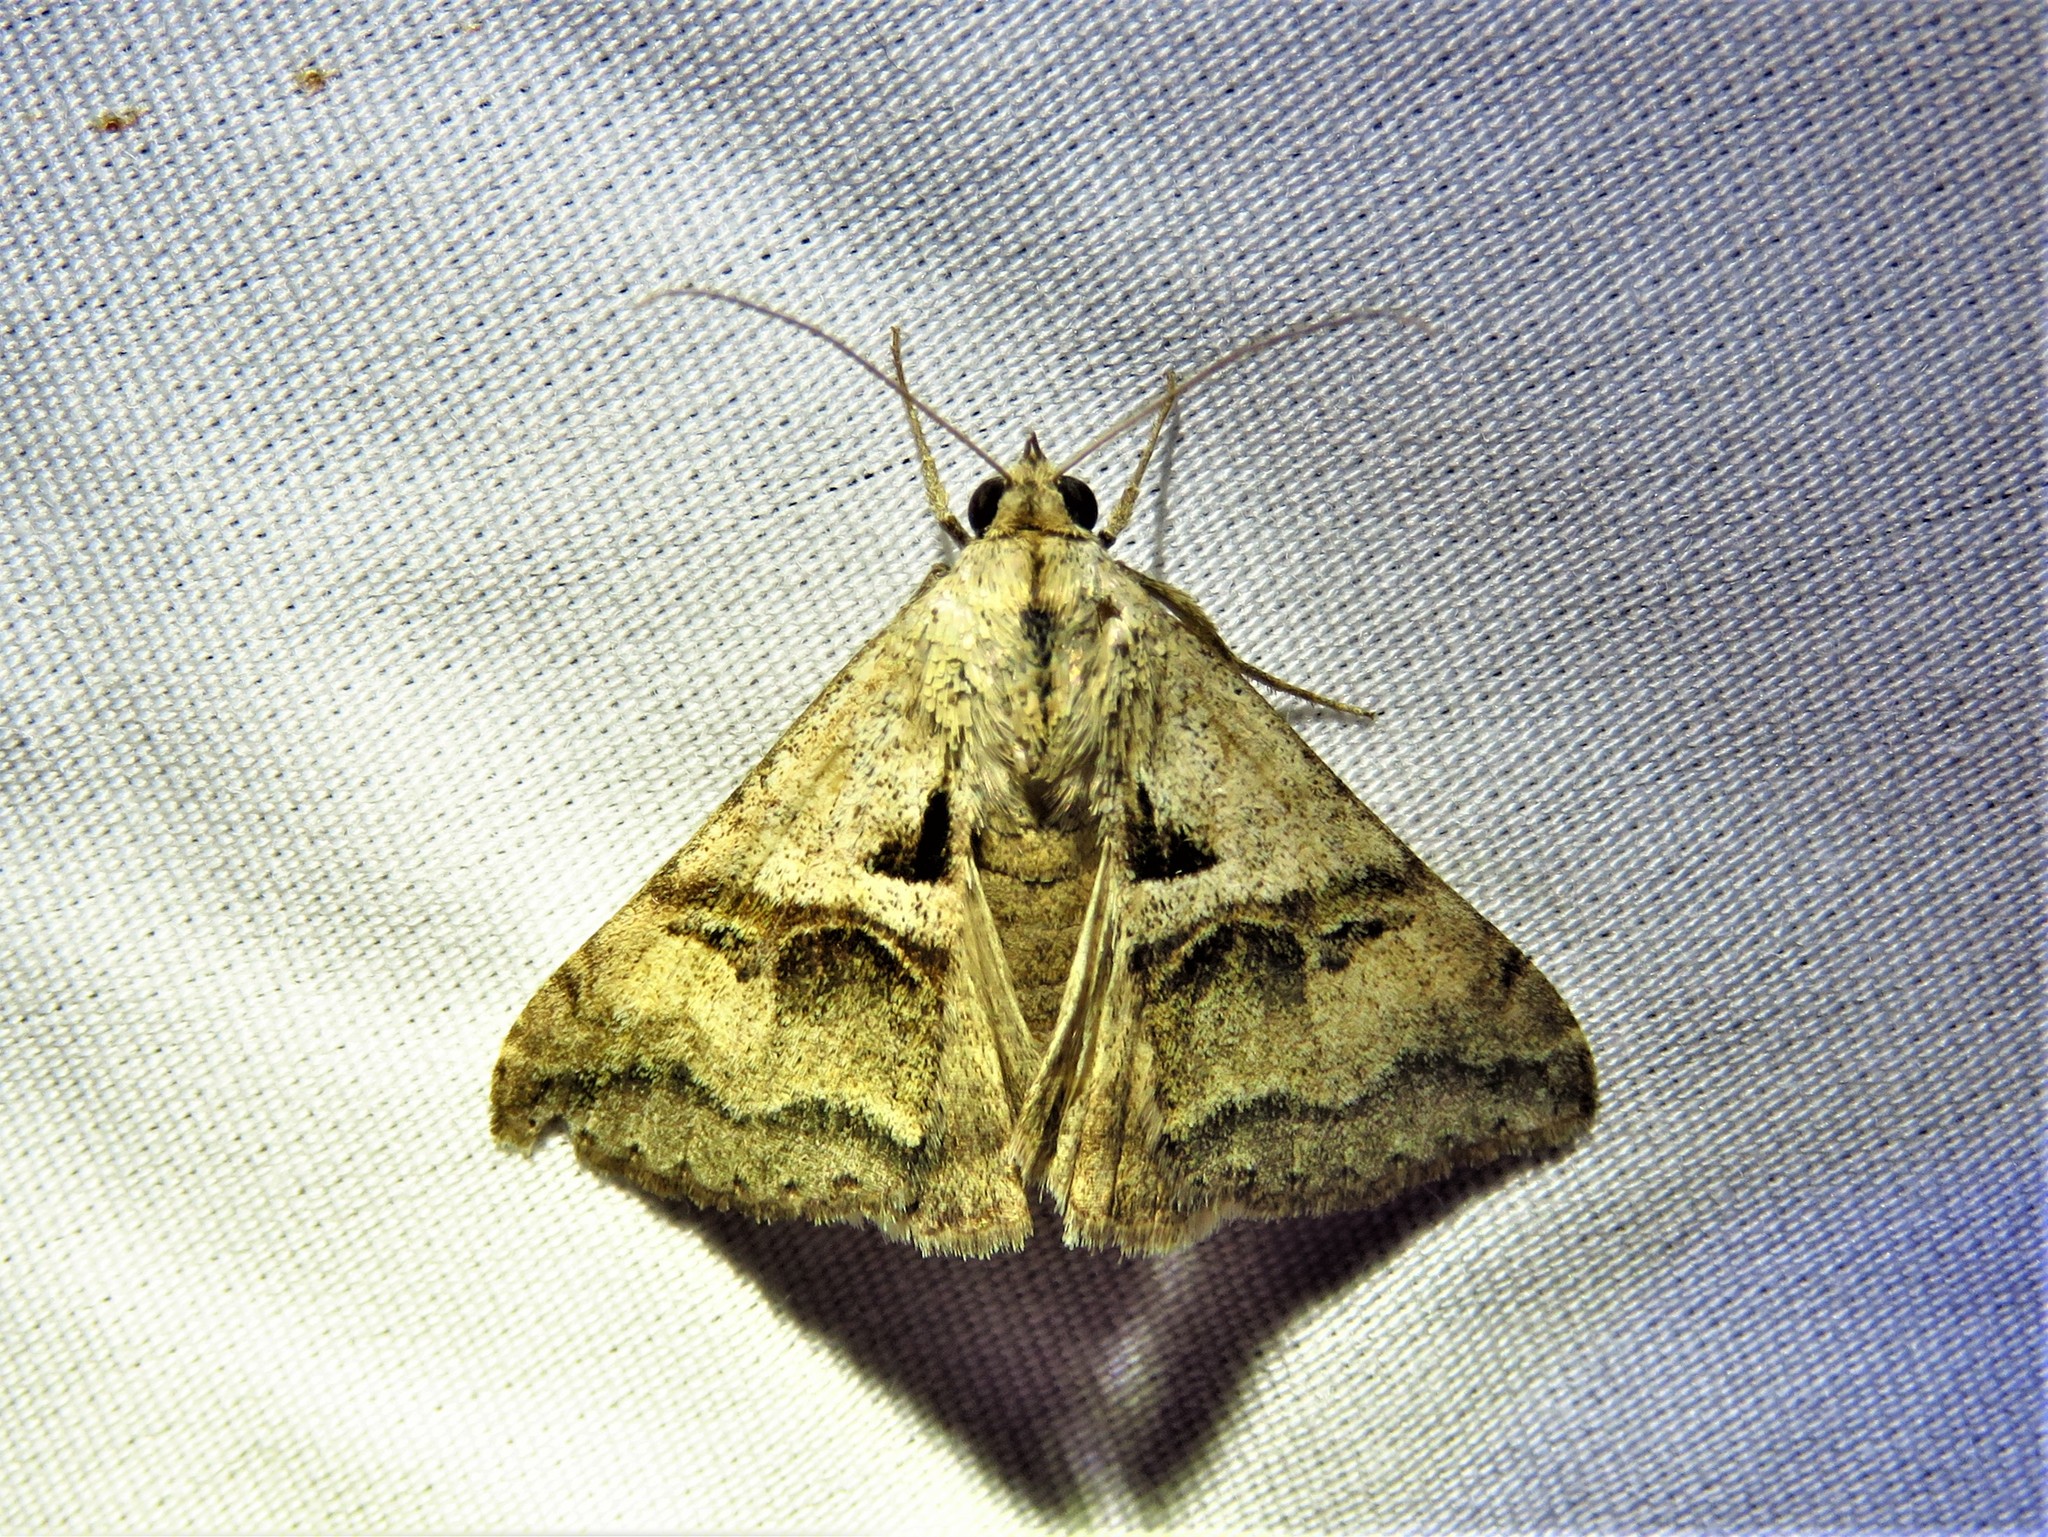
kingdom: Animalia
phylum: Arthropoda
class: Insecta
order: Lepidoptera
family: Erebidae
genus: Melipotis
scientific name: Melipotis cellaris
